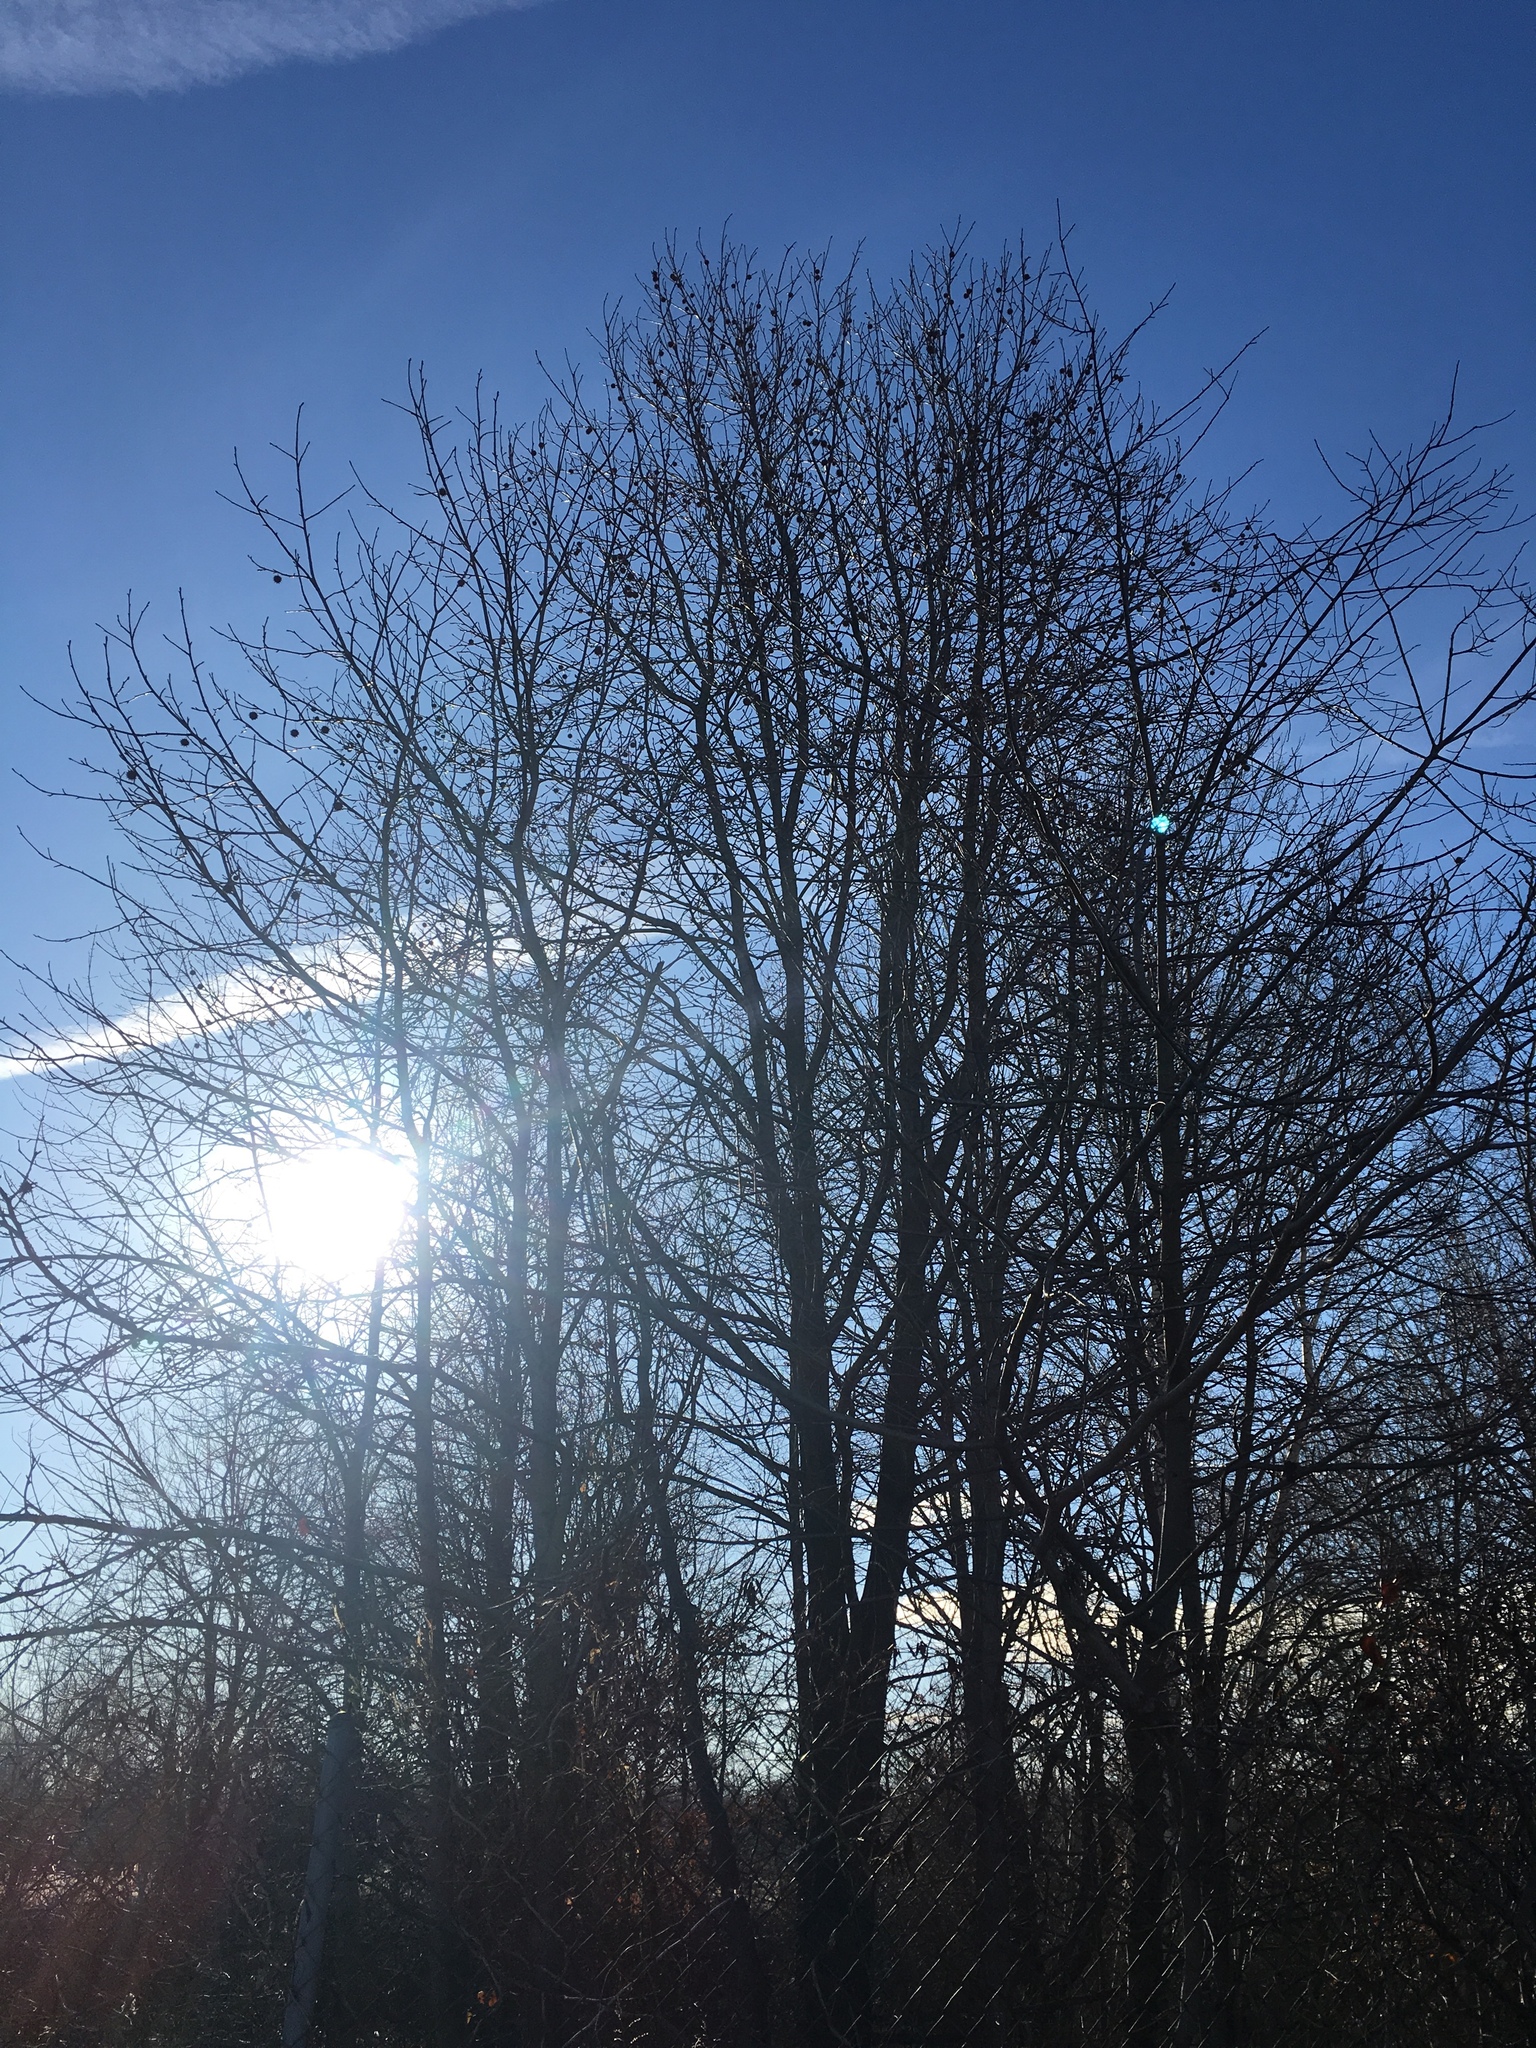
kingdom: Plantae
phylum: Tracheophyta
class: Magnoliopsida
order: Saxifragales
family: Altingiaceae
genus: Liquidambar
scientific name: Liquidambar styraciflua
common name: Sweet gum
